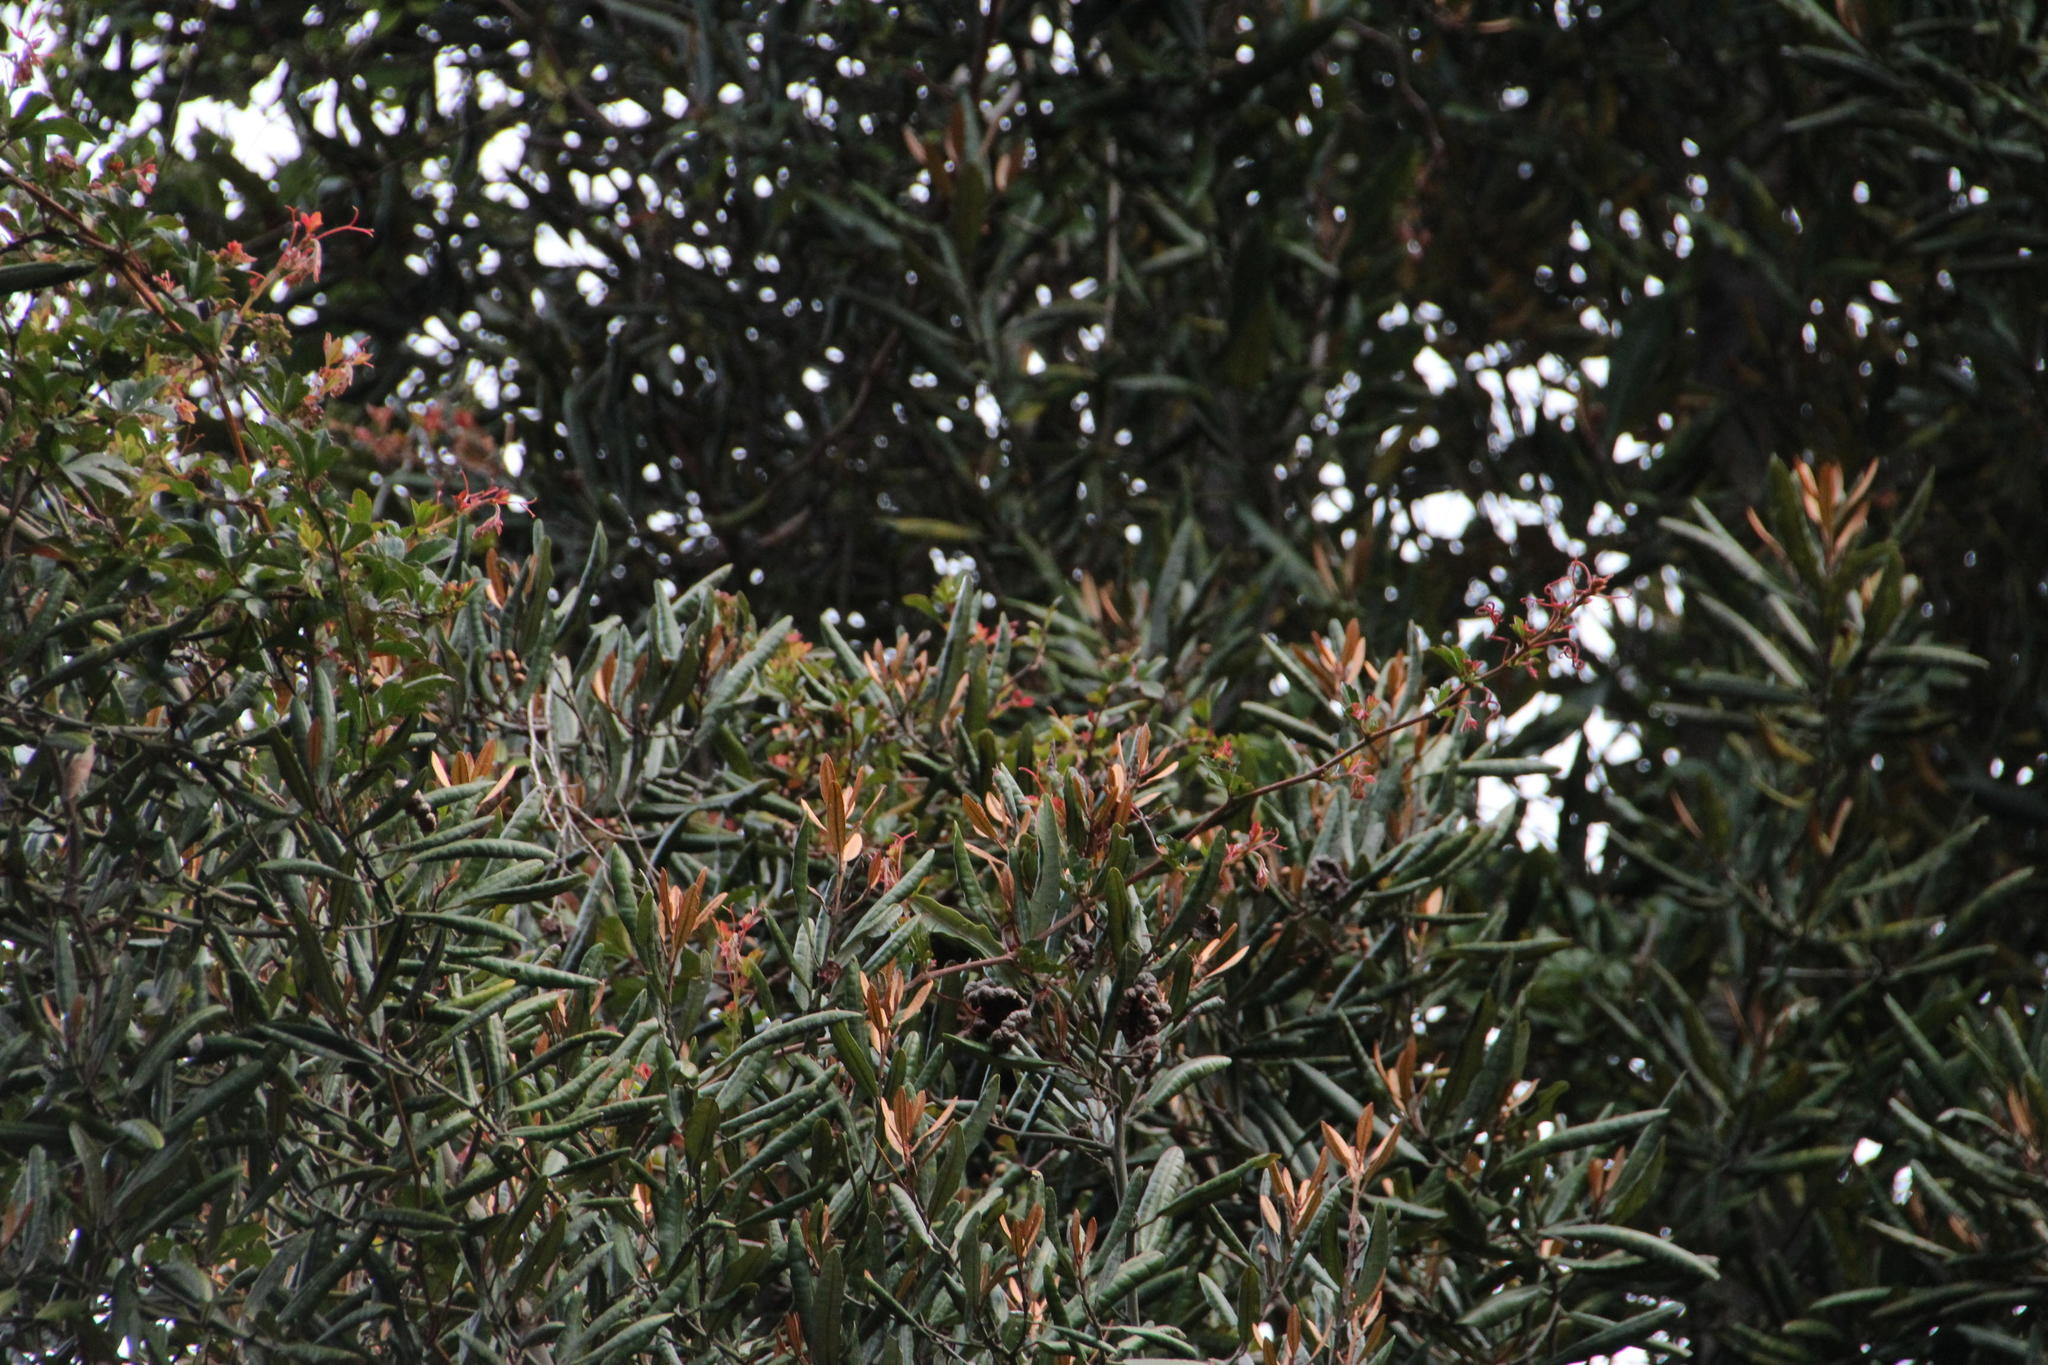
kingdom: Plantae
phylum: Tracheophyta
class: Magnoliopsida
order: Berberidopsidales
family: Aextoxicaceae
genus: Aextoxicon
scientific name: Aextoxicon punctatum
